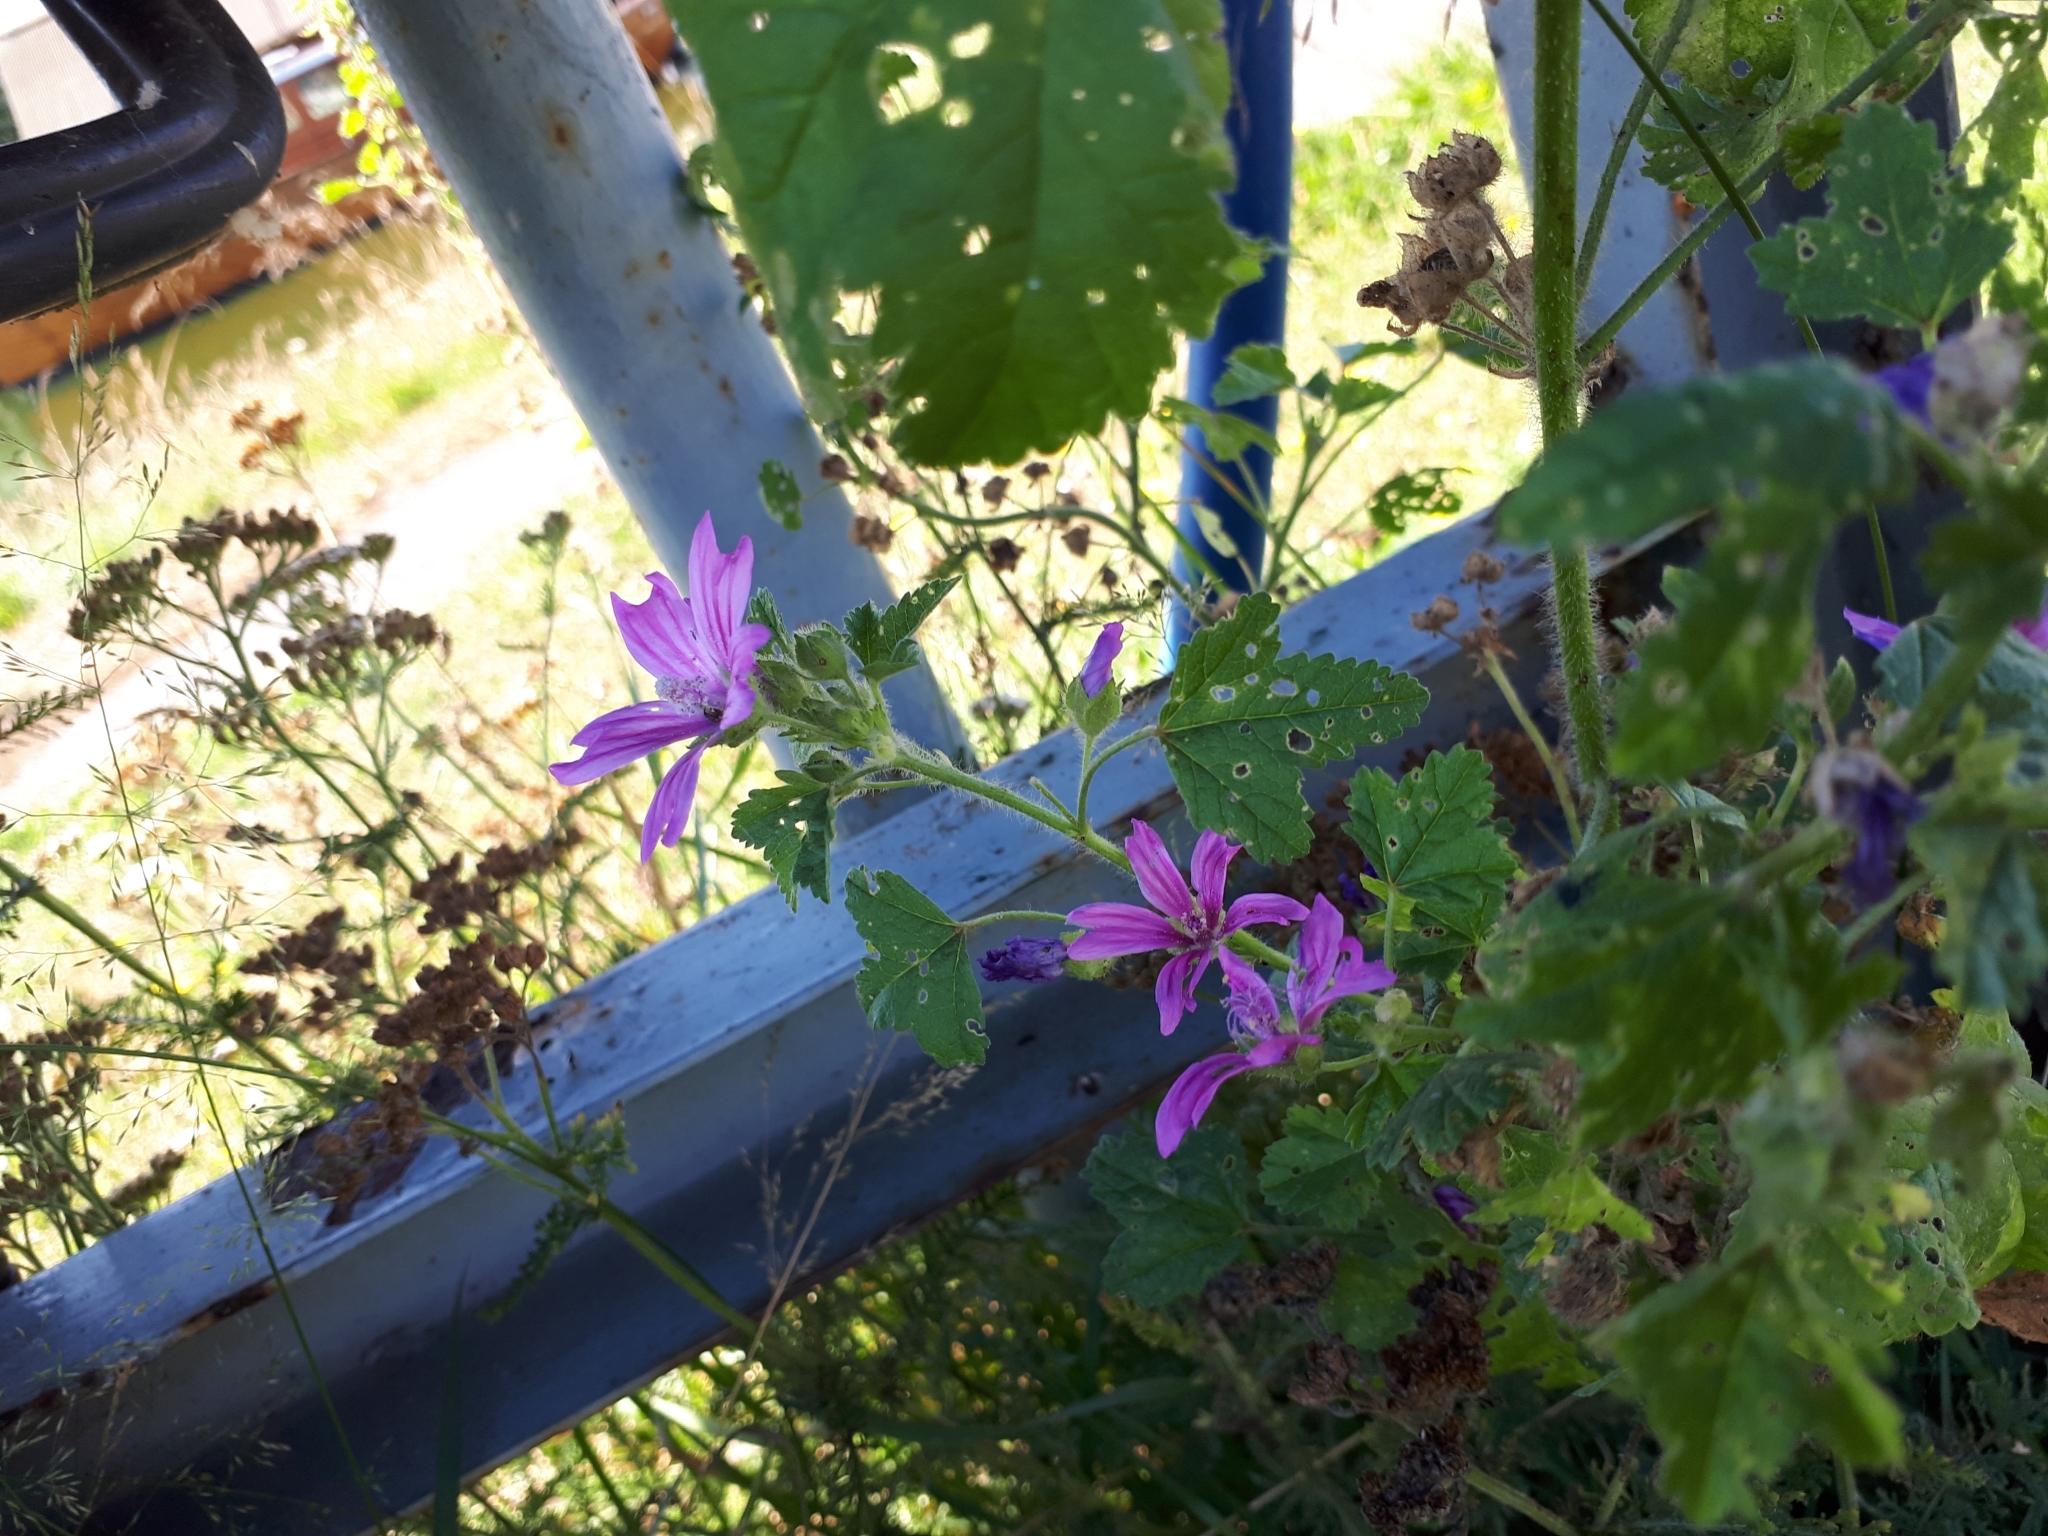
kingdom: Plantae
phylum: Tracheophyta
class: Magnoliopsida
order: Malvales
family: Malvaceae
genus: Malva
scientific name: Malva sylvestris
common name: Common mallow
